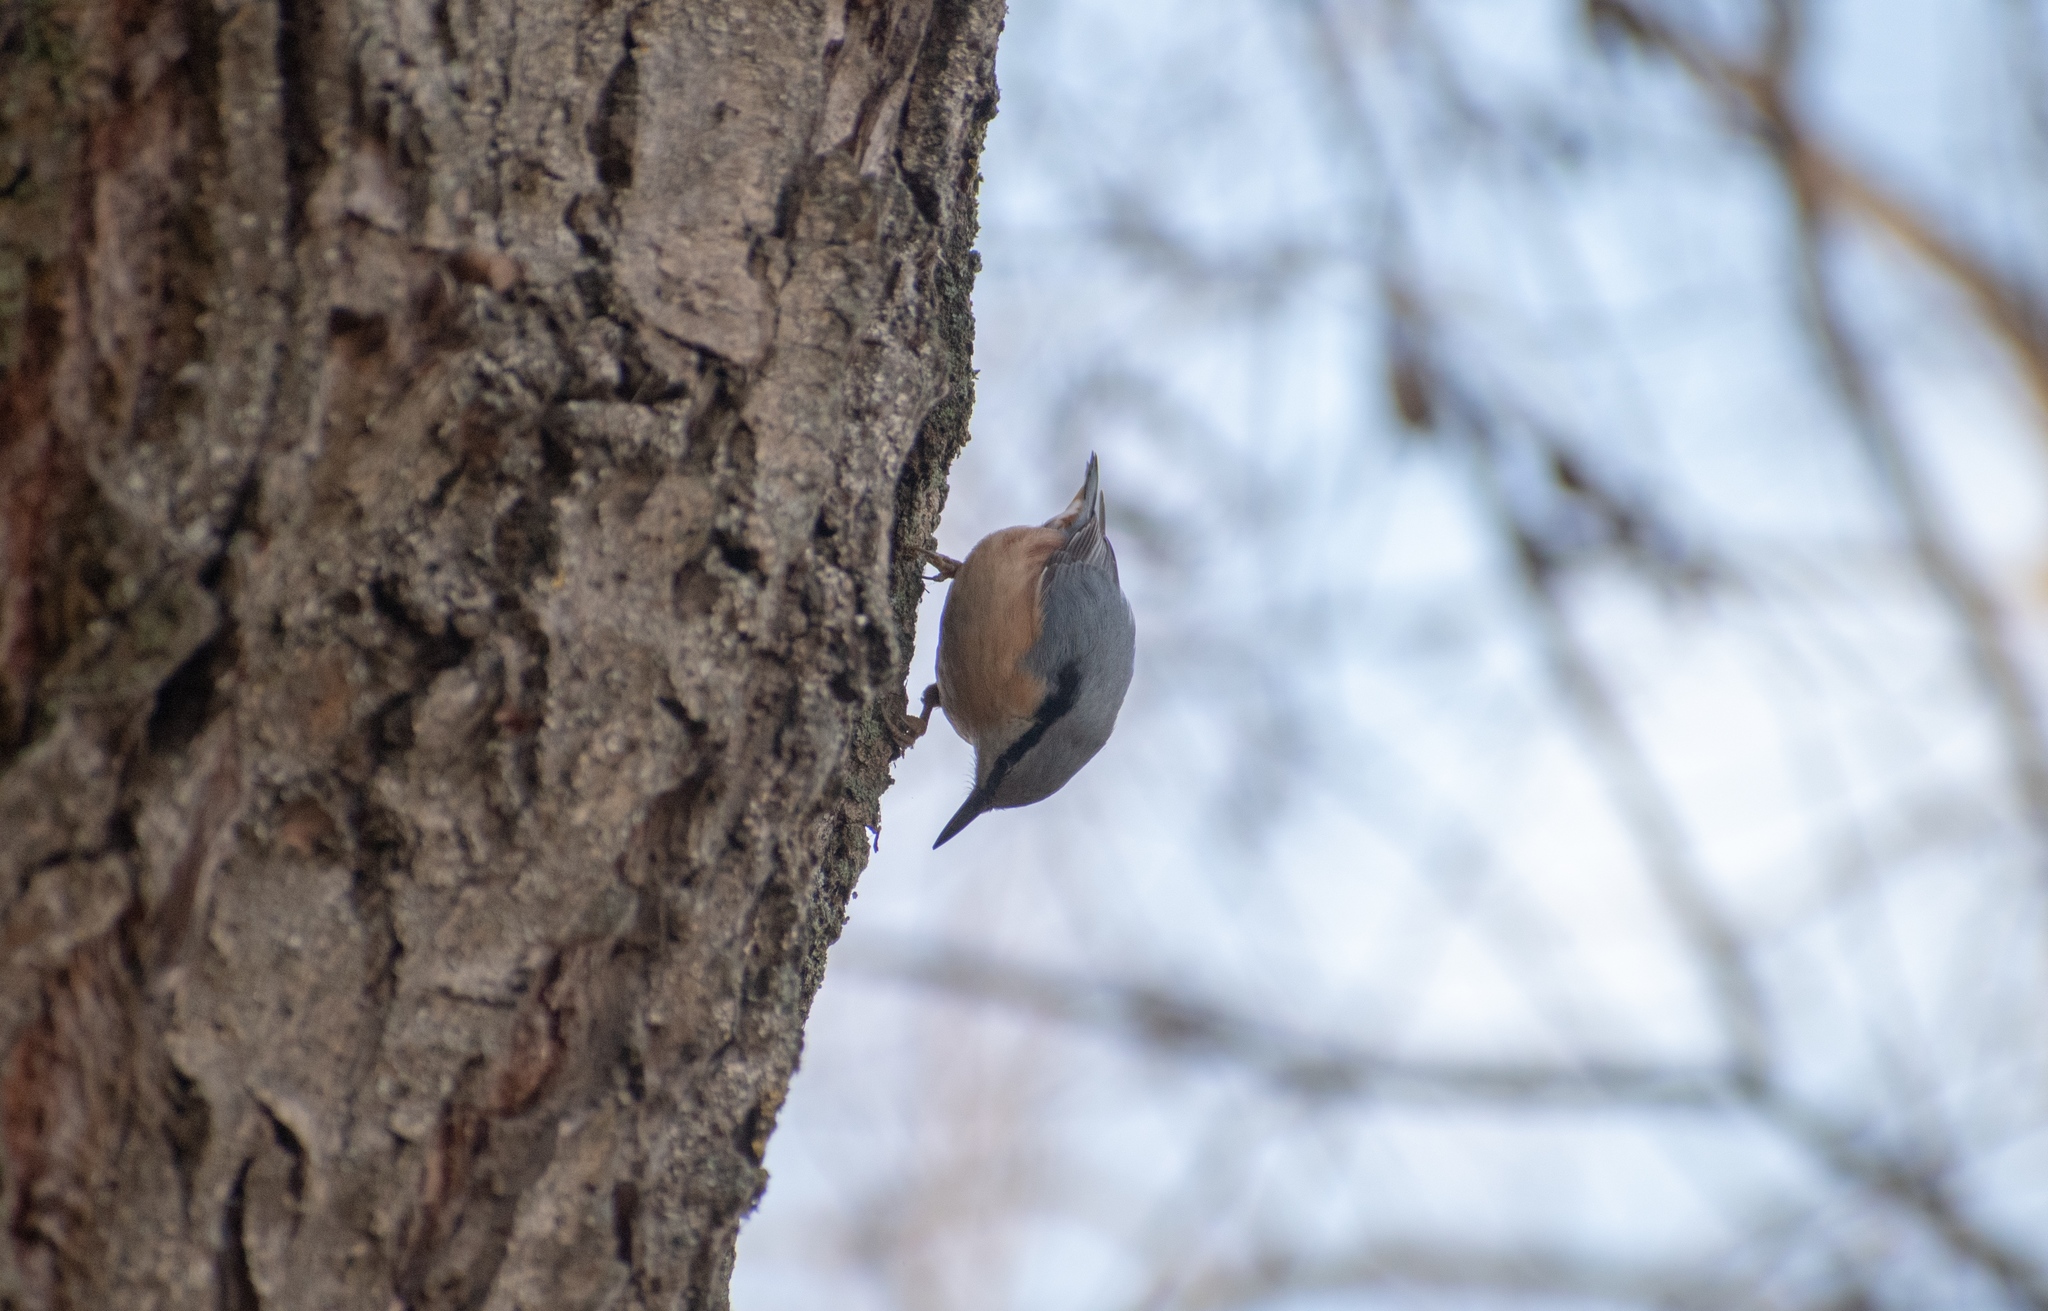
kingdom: Animalia
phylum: Chordata
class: Aves
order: Passeriformes
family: Sittidae
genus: Sitta
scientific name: Sitta europaea
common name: Eurasian nuthatch
